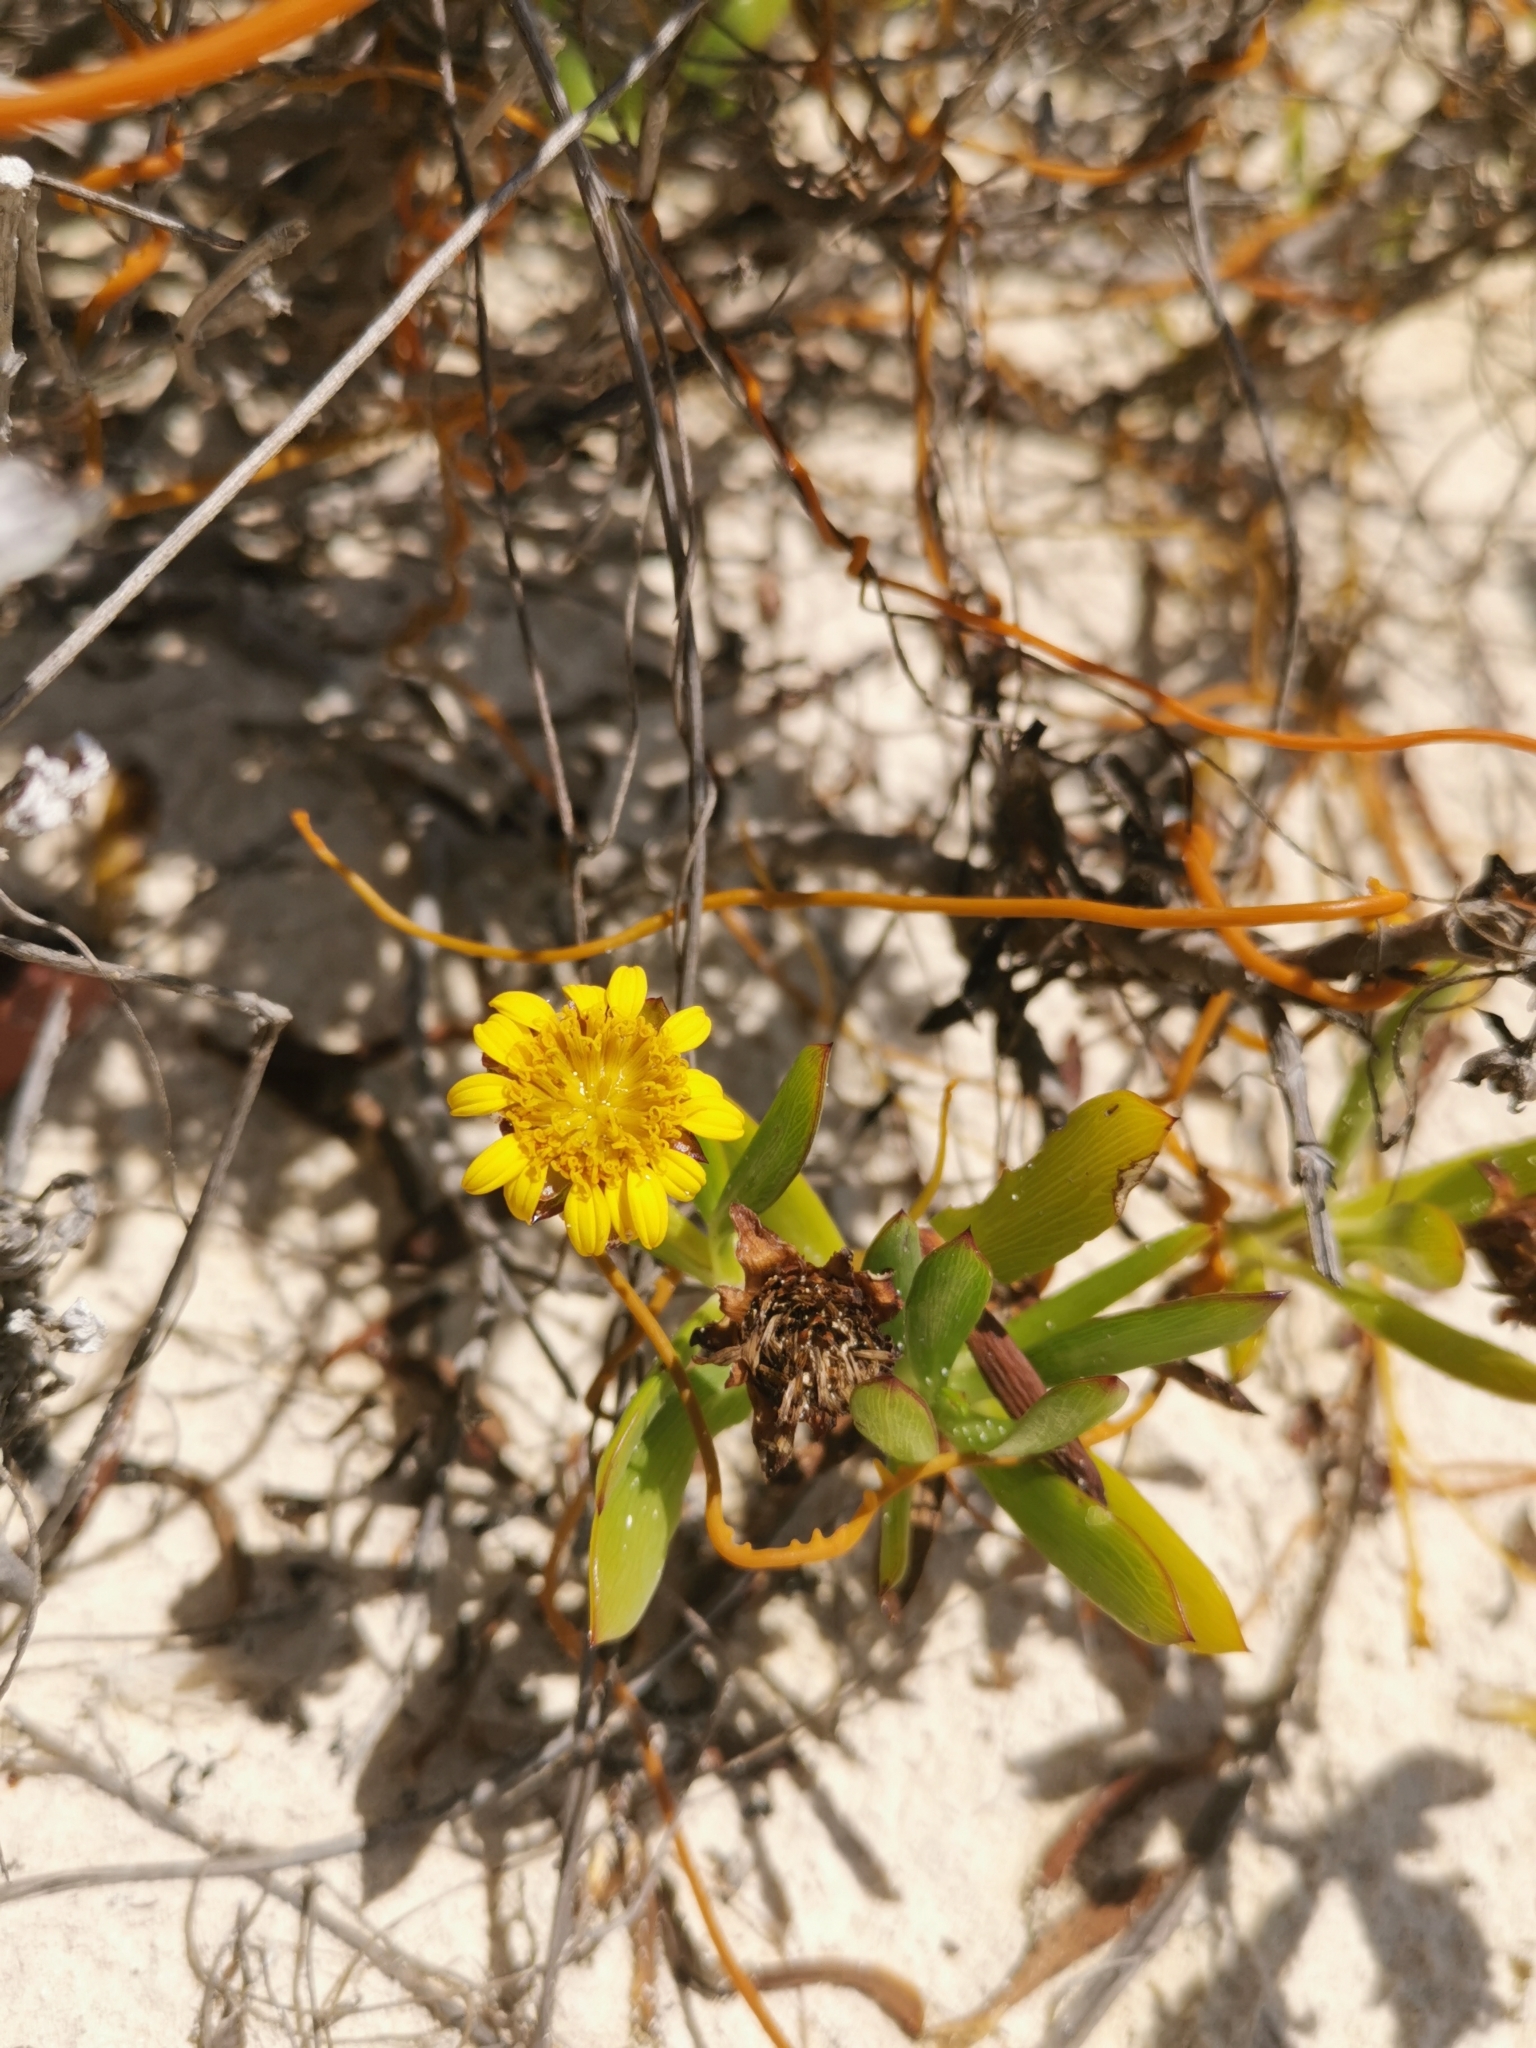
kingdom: Plantae
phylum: Tracheophyta
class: Magnoliopsida
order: Asterales
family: Asteraceae
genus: Borrichia
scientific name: Borrichia arborescens
